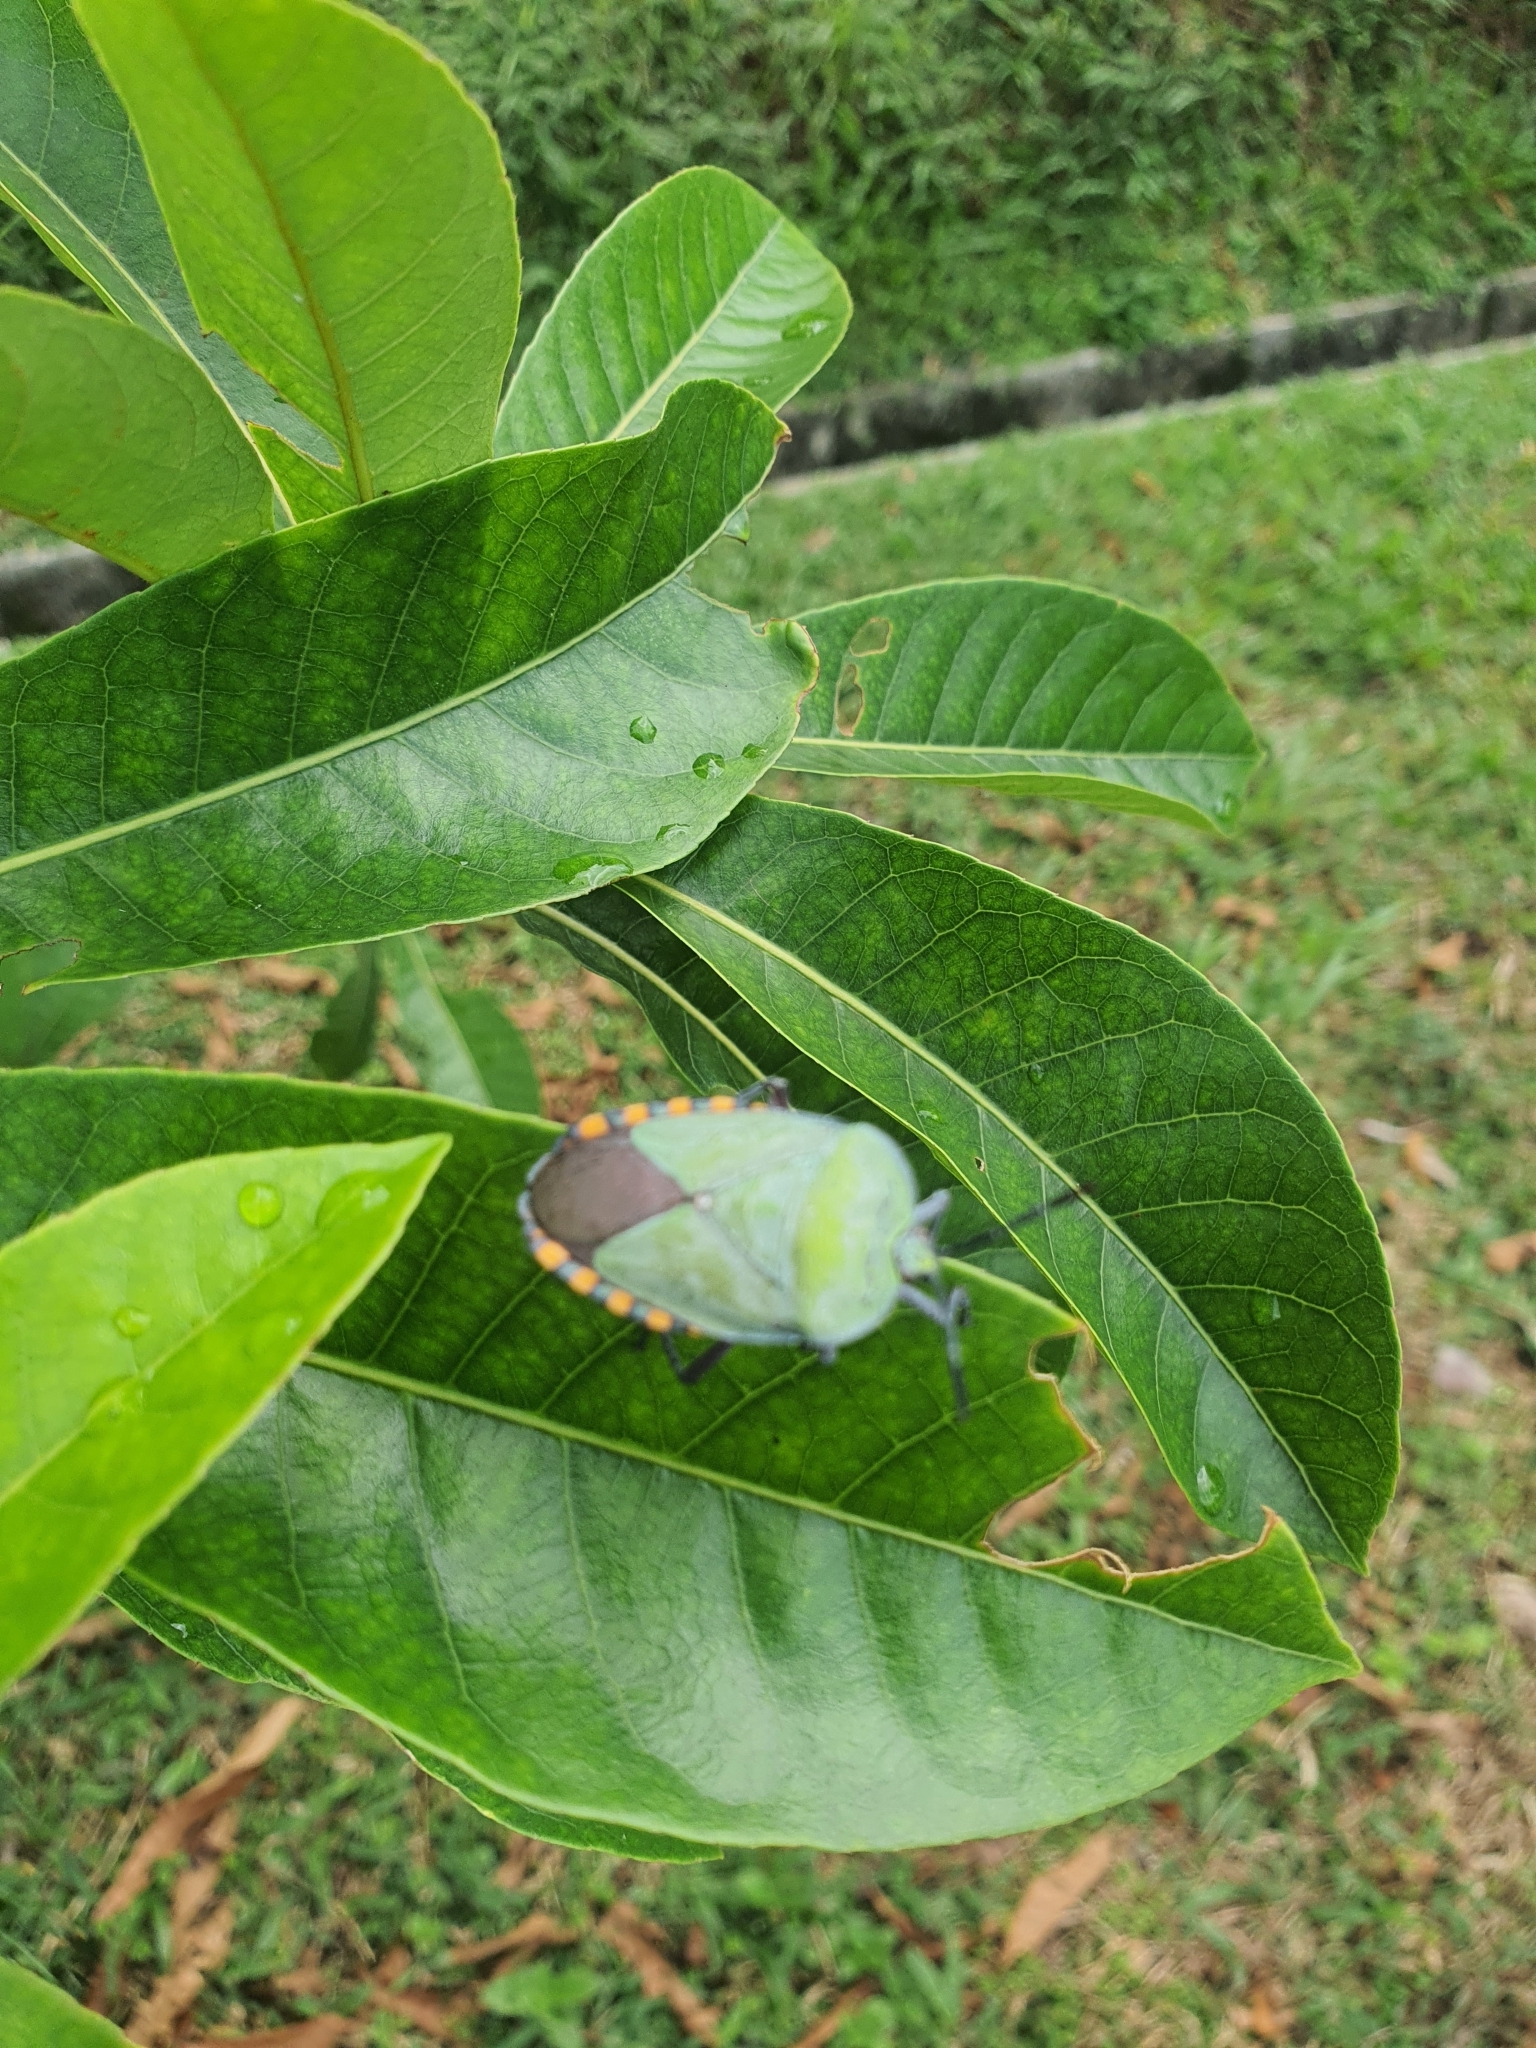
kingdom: Animalia
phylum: Arthropoda
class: Insecta
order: Hemiptera
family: Tessaratomidae
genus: Pycanum
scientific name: Pycanum alternatum
